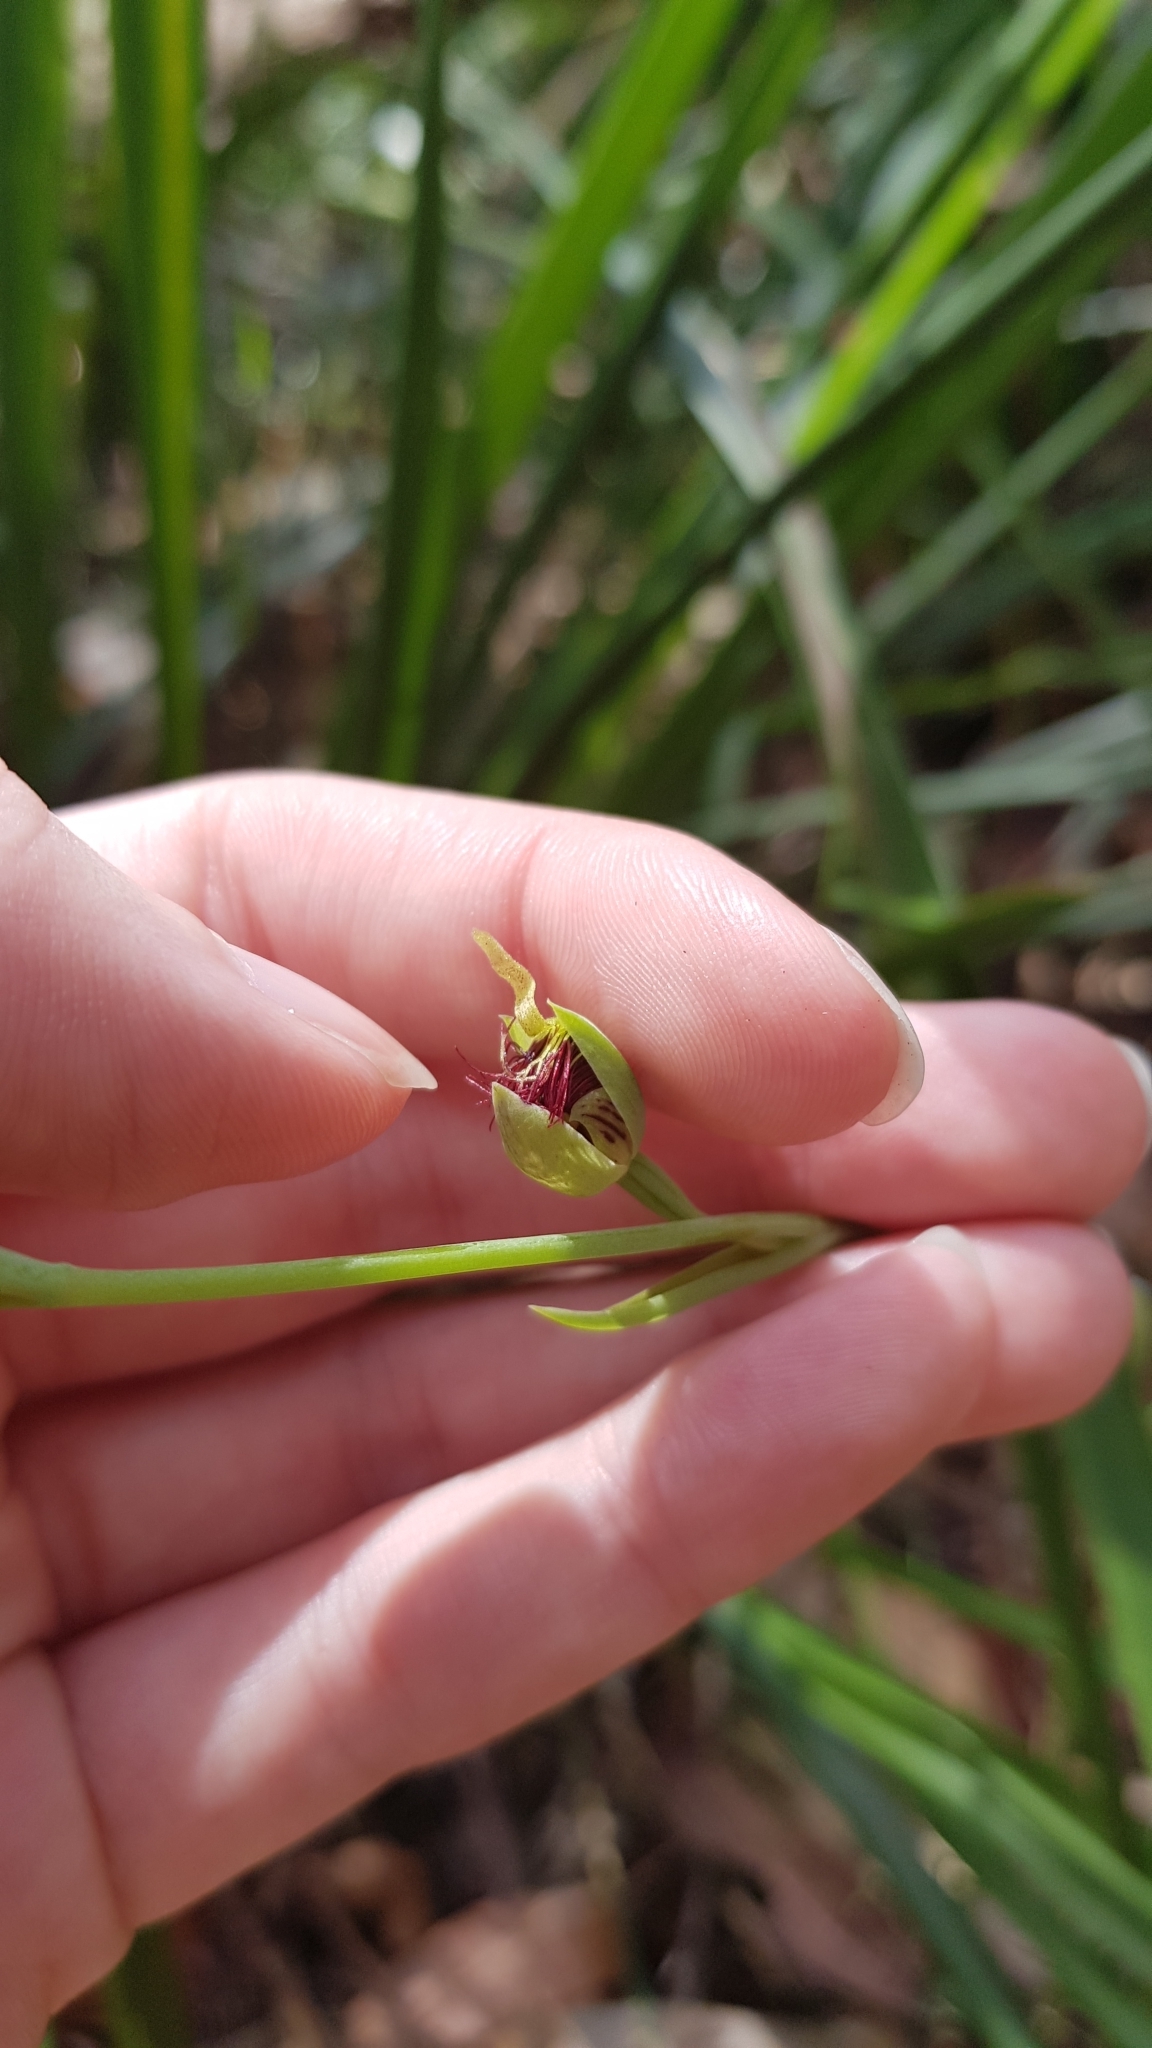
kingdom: Plantae
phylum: Tracheophyta
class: Liliopsida
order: Asparagales
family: Orchidaceae
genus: Calochilus
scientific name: Calochilus paludosus
